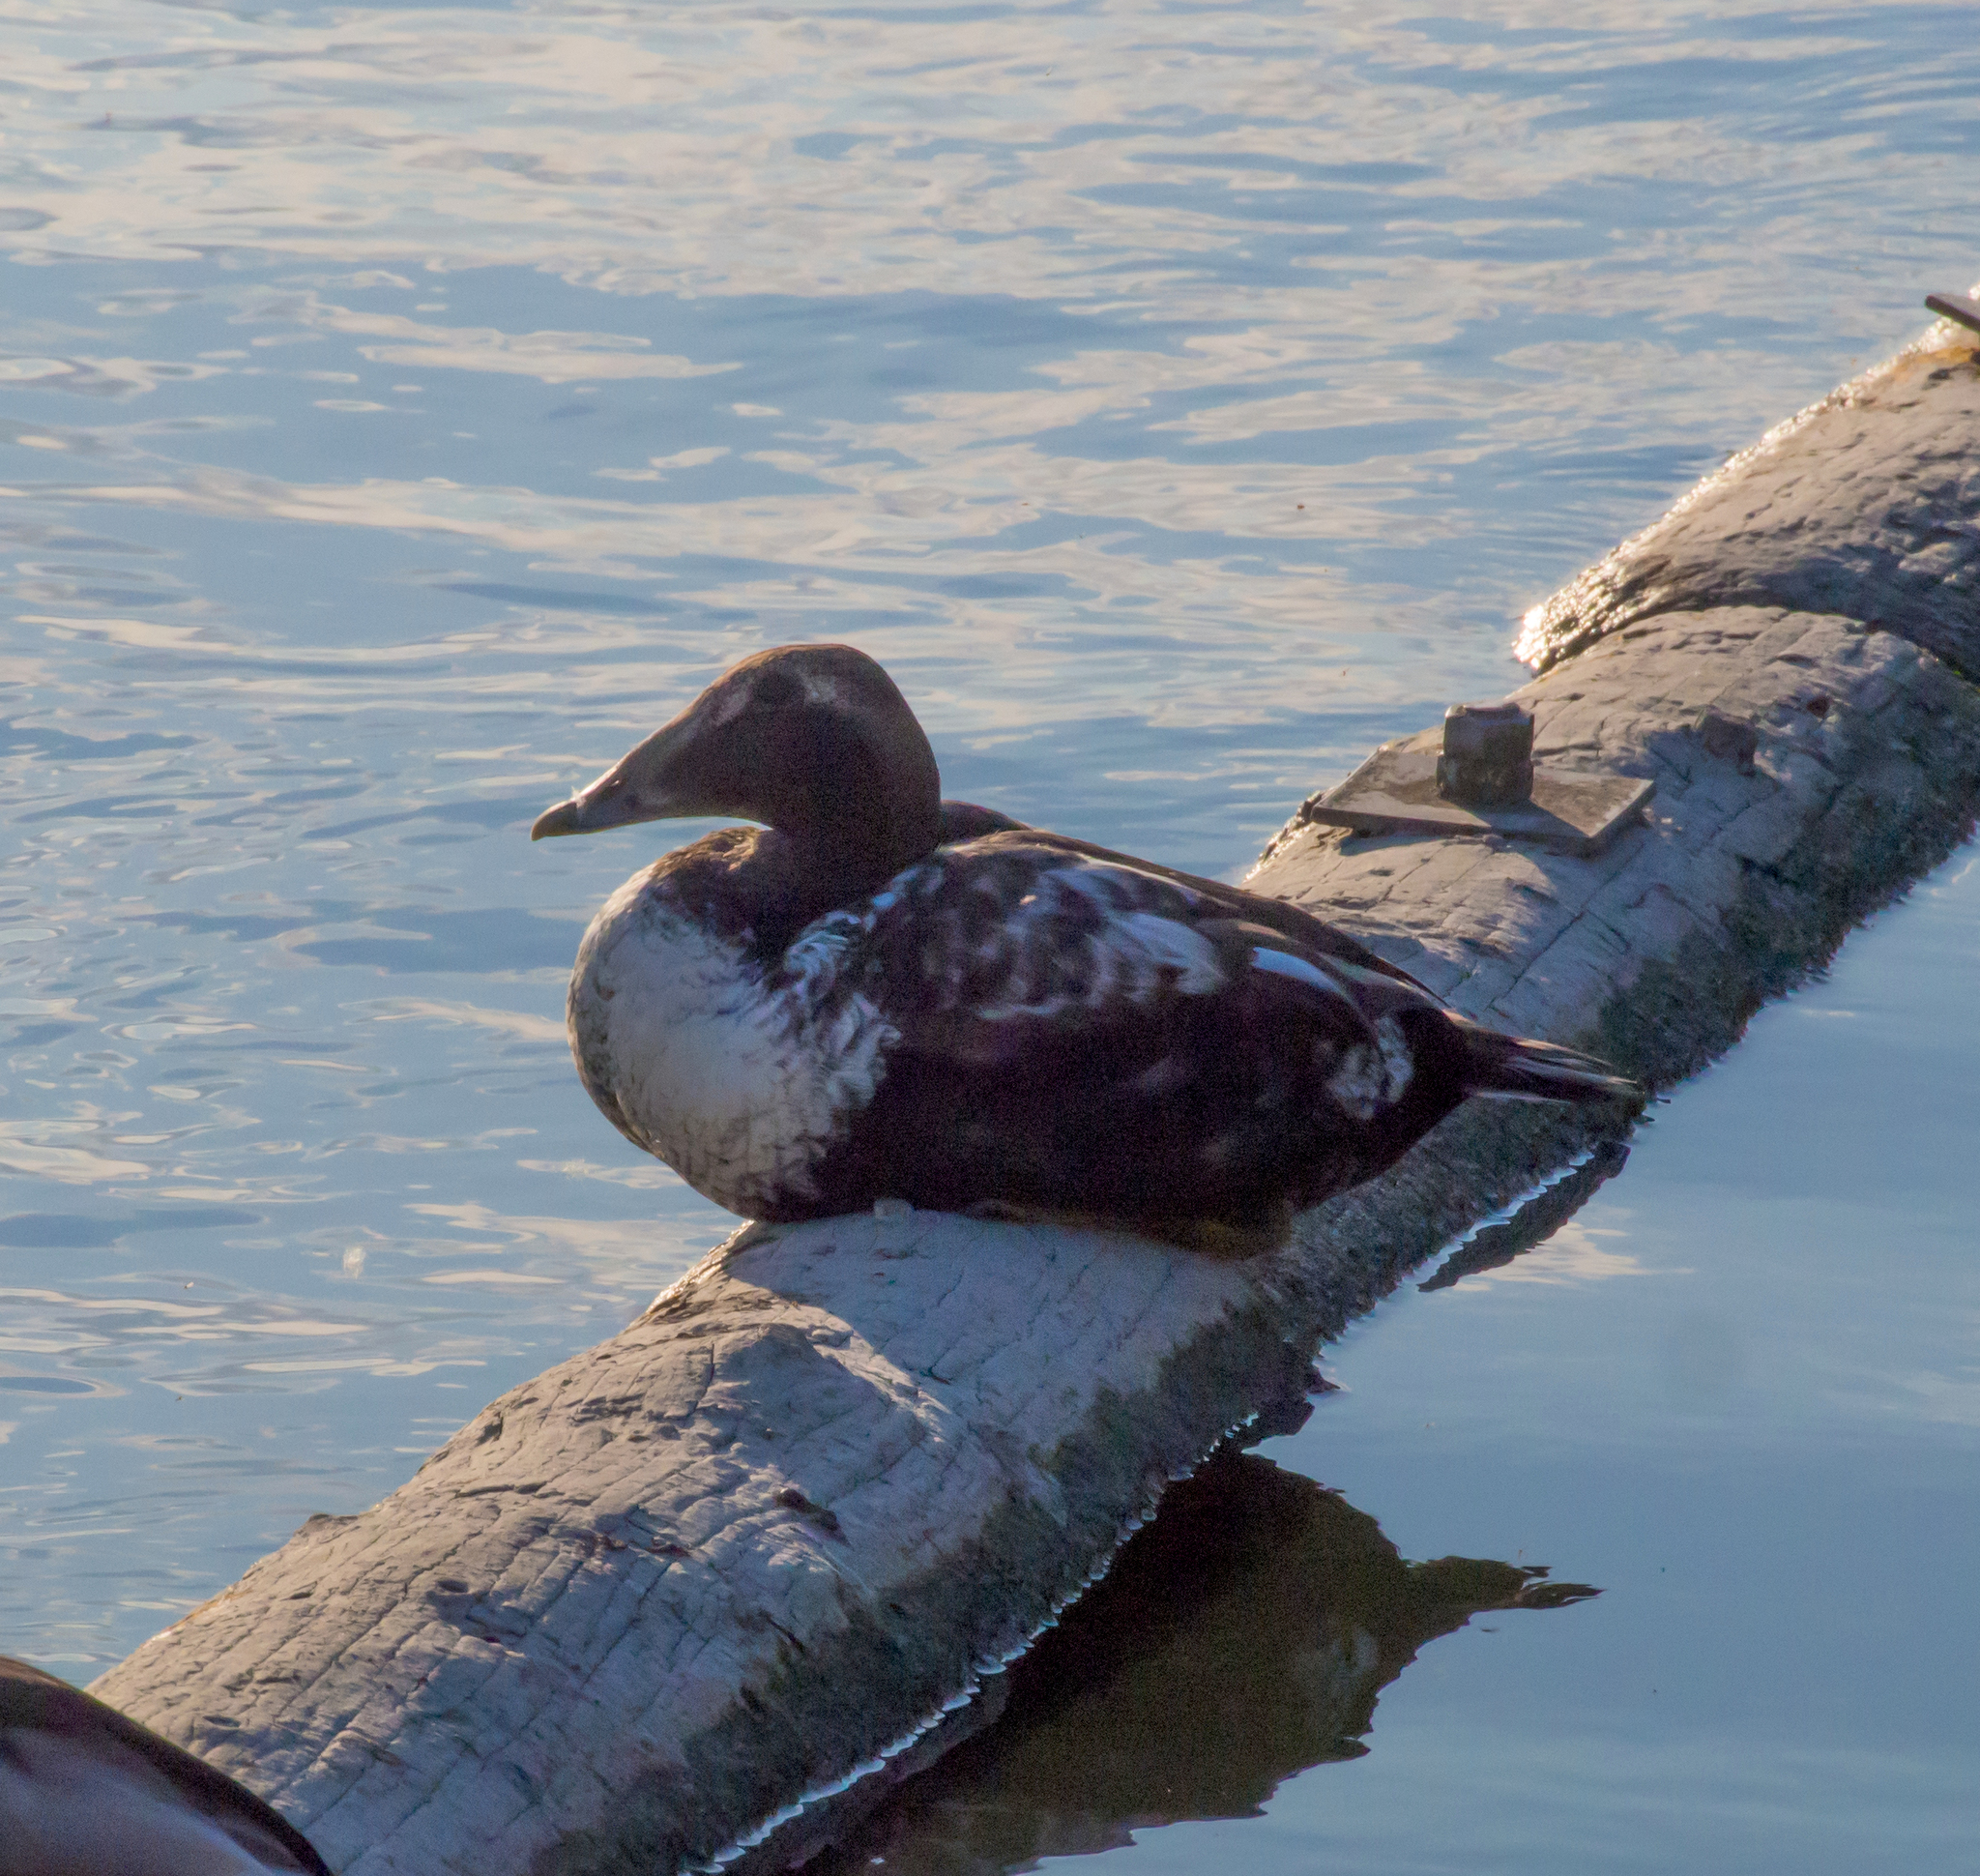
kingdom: Animalia
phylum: Chordata
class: Aves
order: Anseriformes
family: Anatidae
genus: Somateria
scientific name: Somateria mollissima
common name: Common eider
